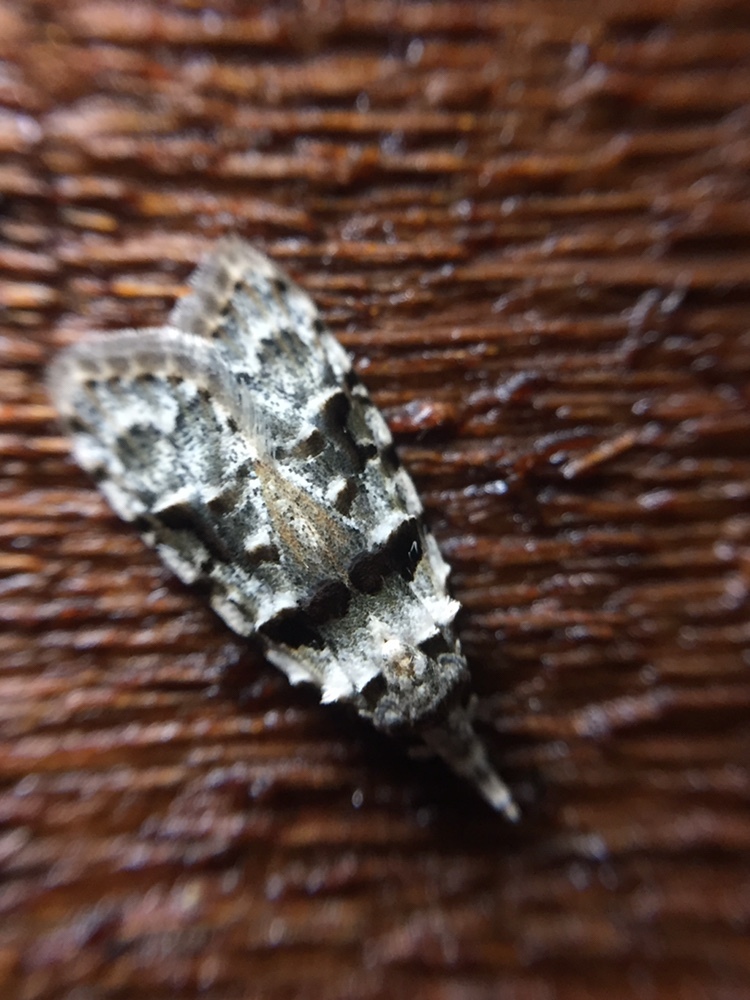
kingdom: Animalia
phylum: Arthropoda
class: Insecta
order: Lepidoptera
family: Carposinidae
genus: Coscinoptycha
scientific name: Coscinoptycha improbana
